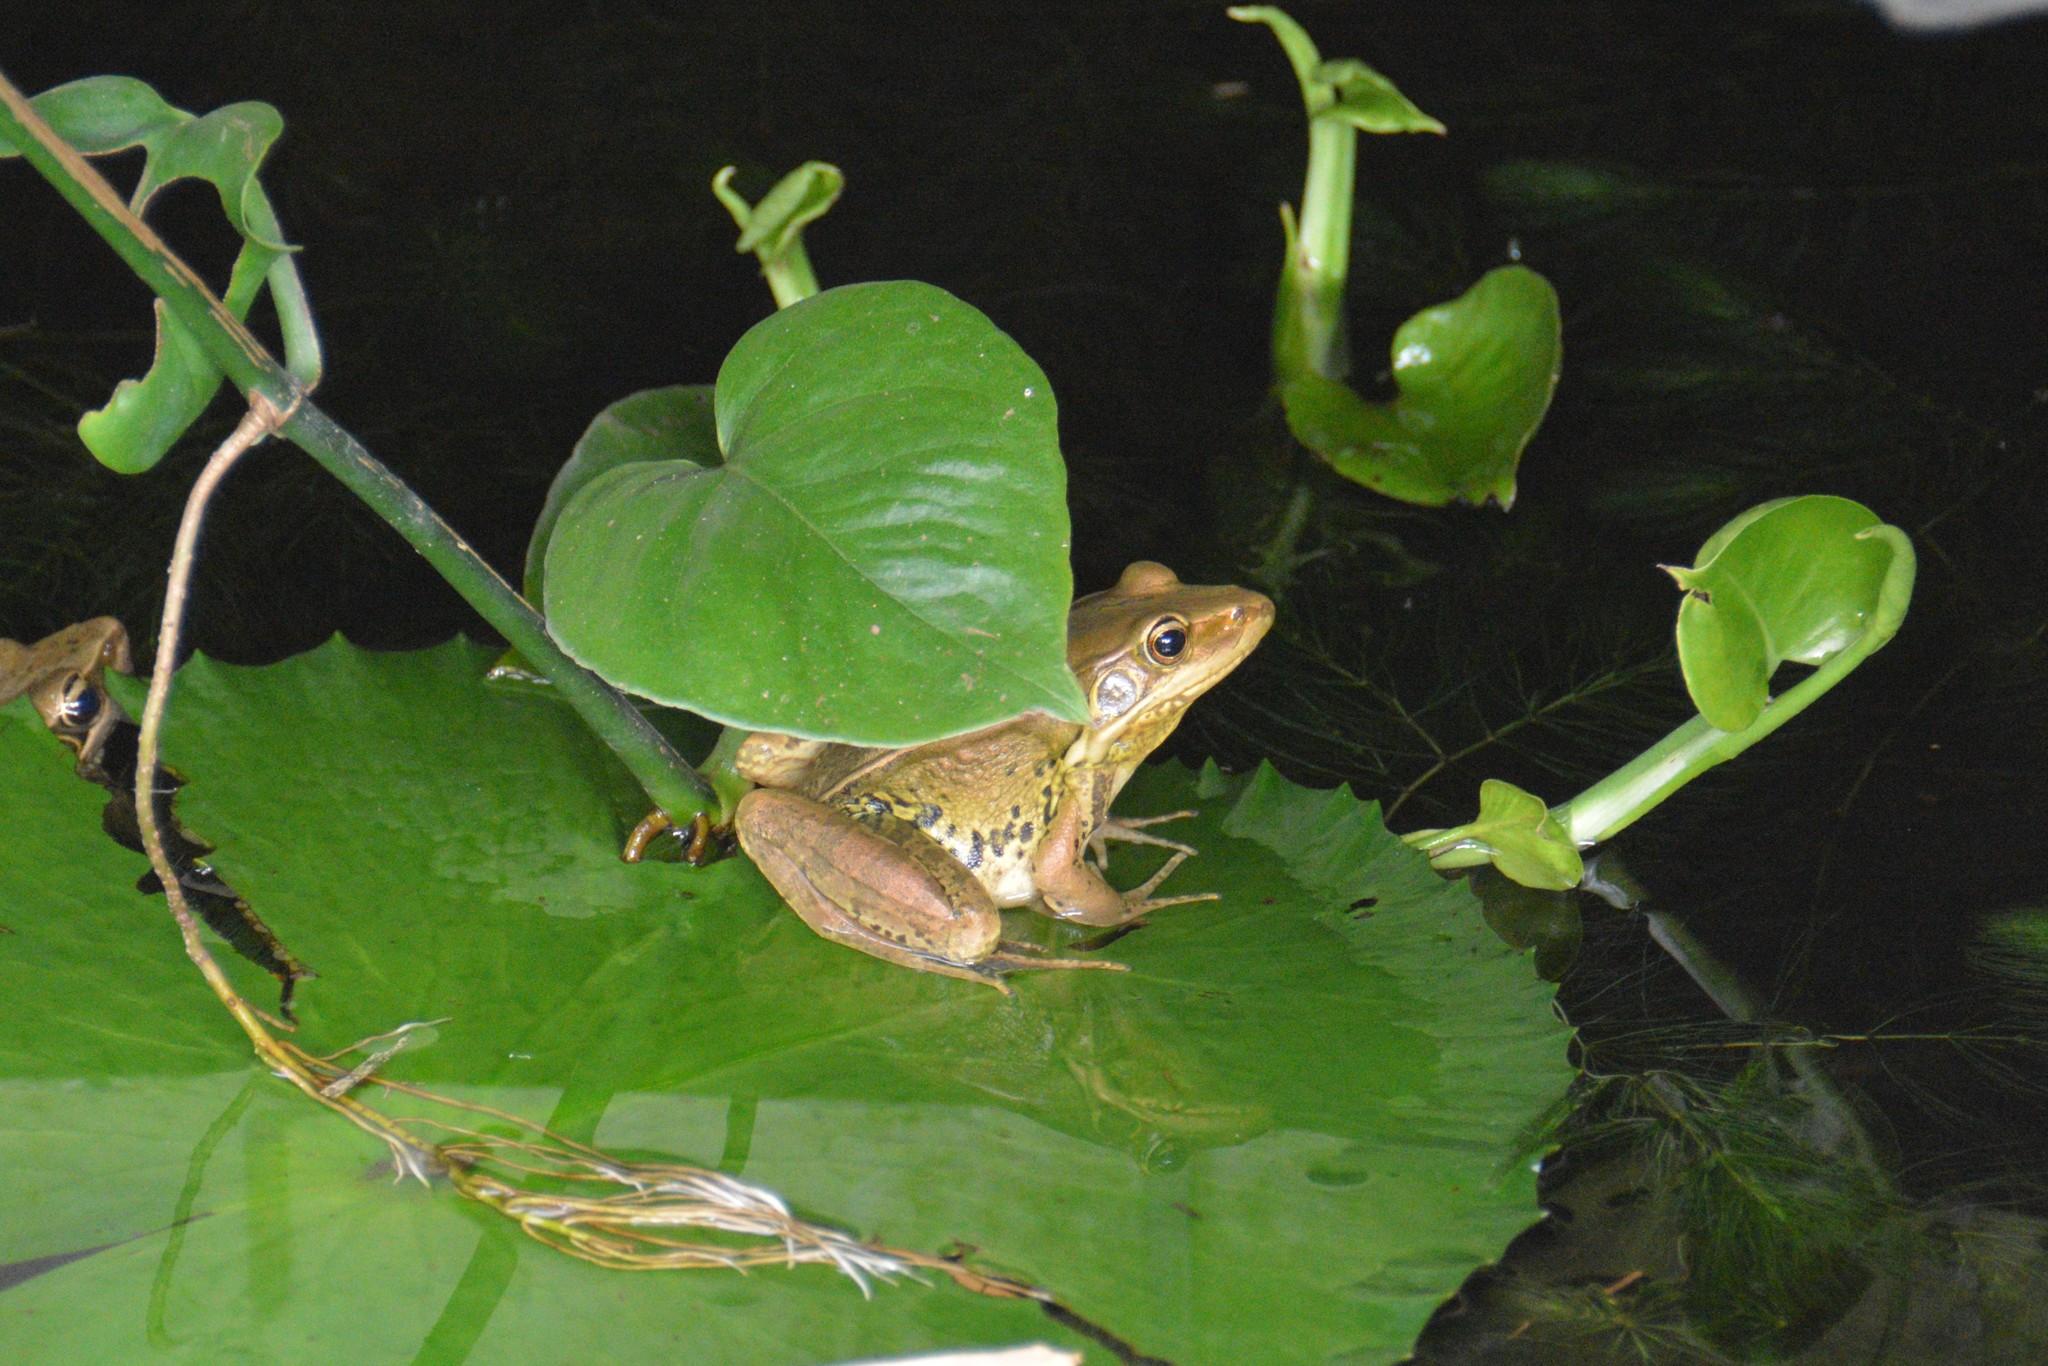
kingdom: Animalia
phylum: Chordata
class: Amphibia
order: Anura
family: Ranidae
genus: Sylvirana
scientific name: Sylvirana guentheri
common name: Guenther's amoy frog
